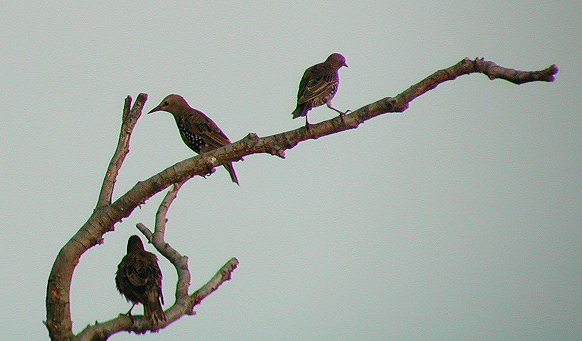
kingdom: Animalia
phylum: Chordata
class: Aves
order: Passeriformes
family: Sturnidae
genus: Sturnus
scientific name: Sturnus vulgaris
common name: Common starling
